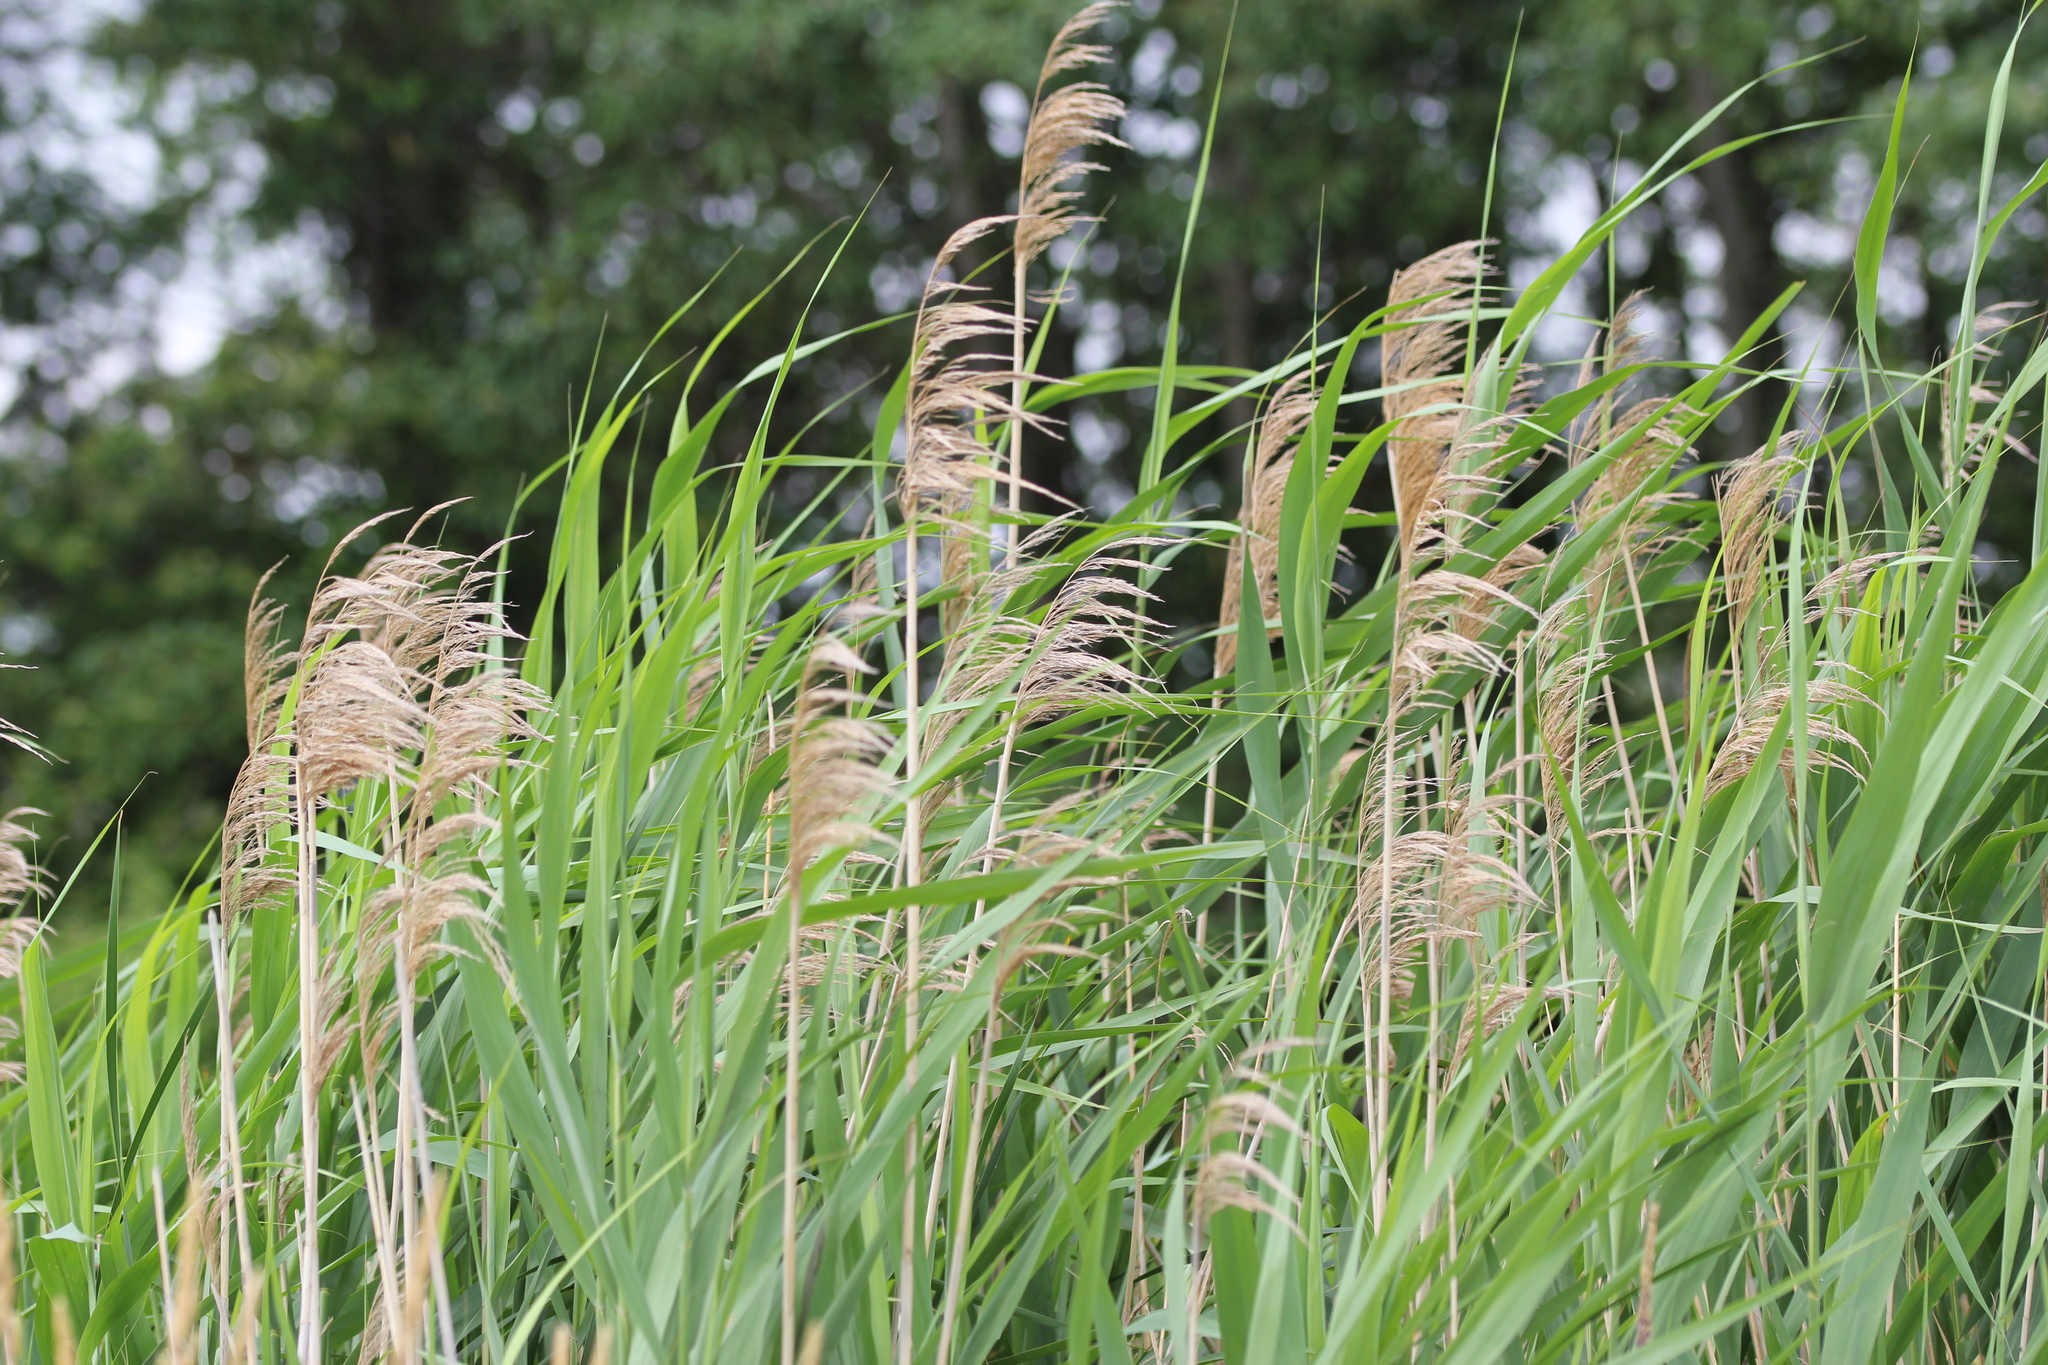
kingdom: Plantae
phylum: Tracheophyta
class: Liliopsida
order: Poales
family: Poaceae
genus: Phragmites
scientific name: Phragmites australis
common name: Common reed
